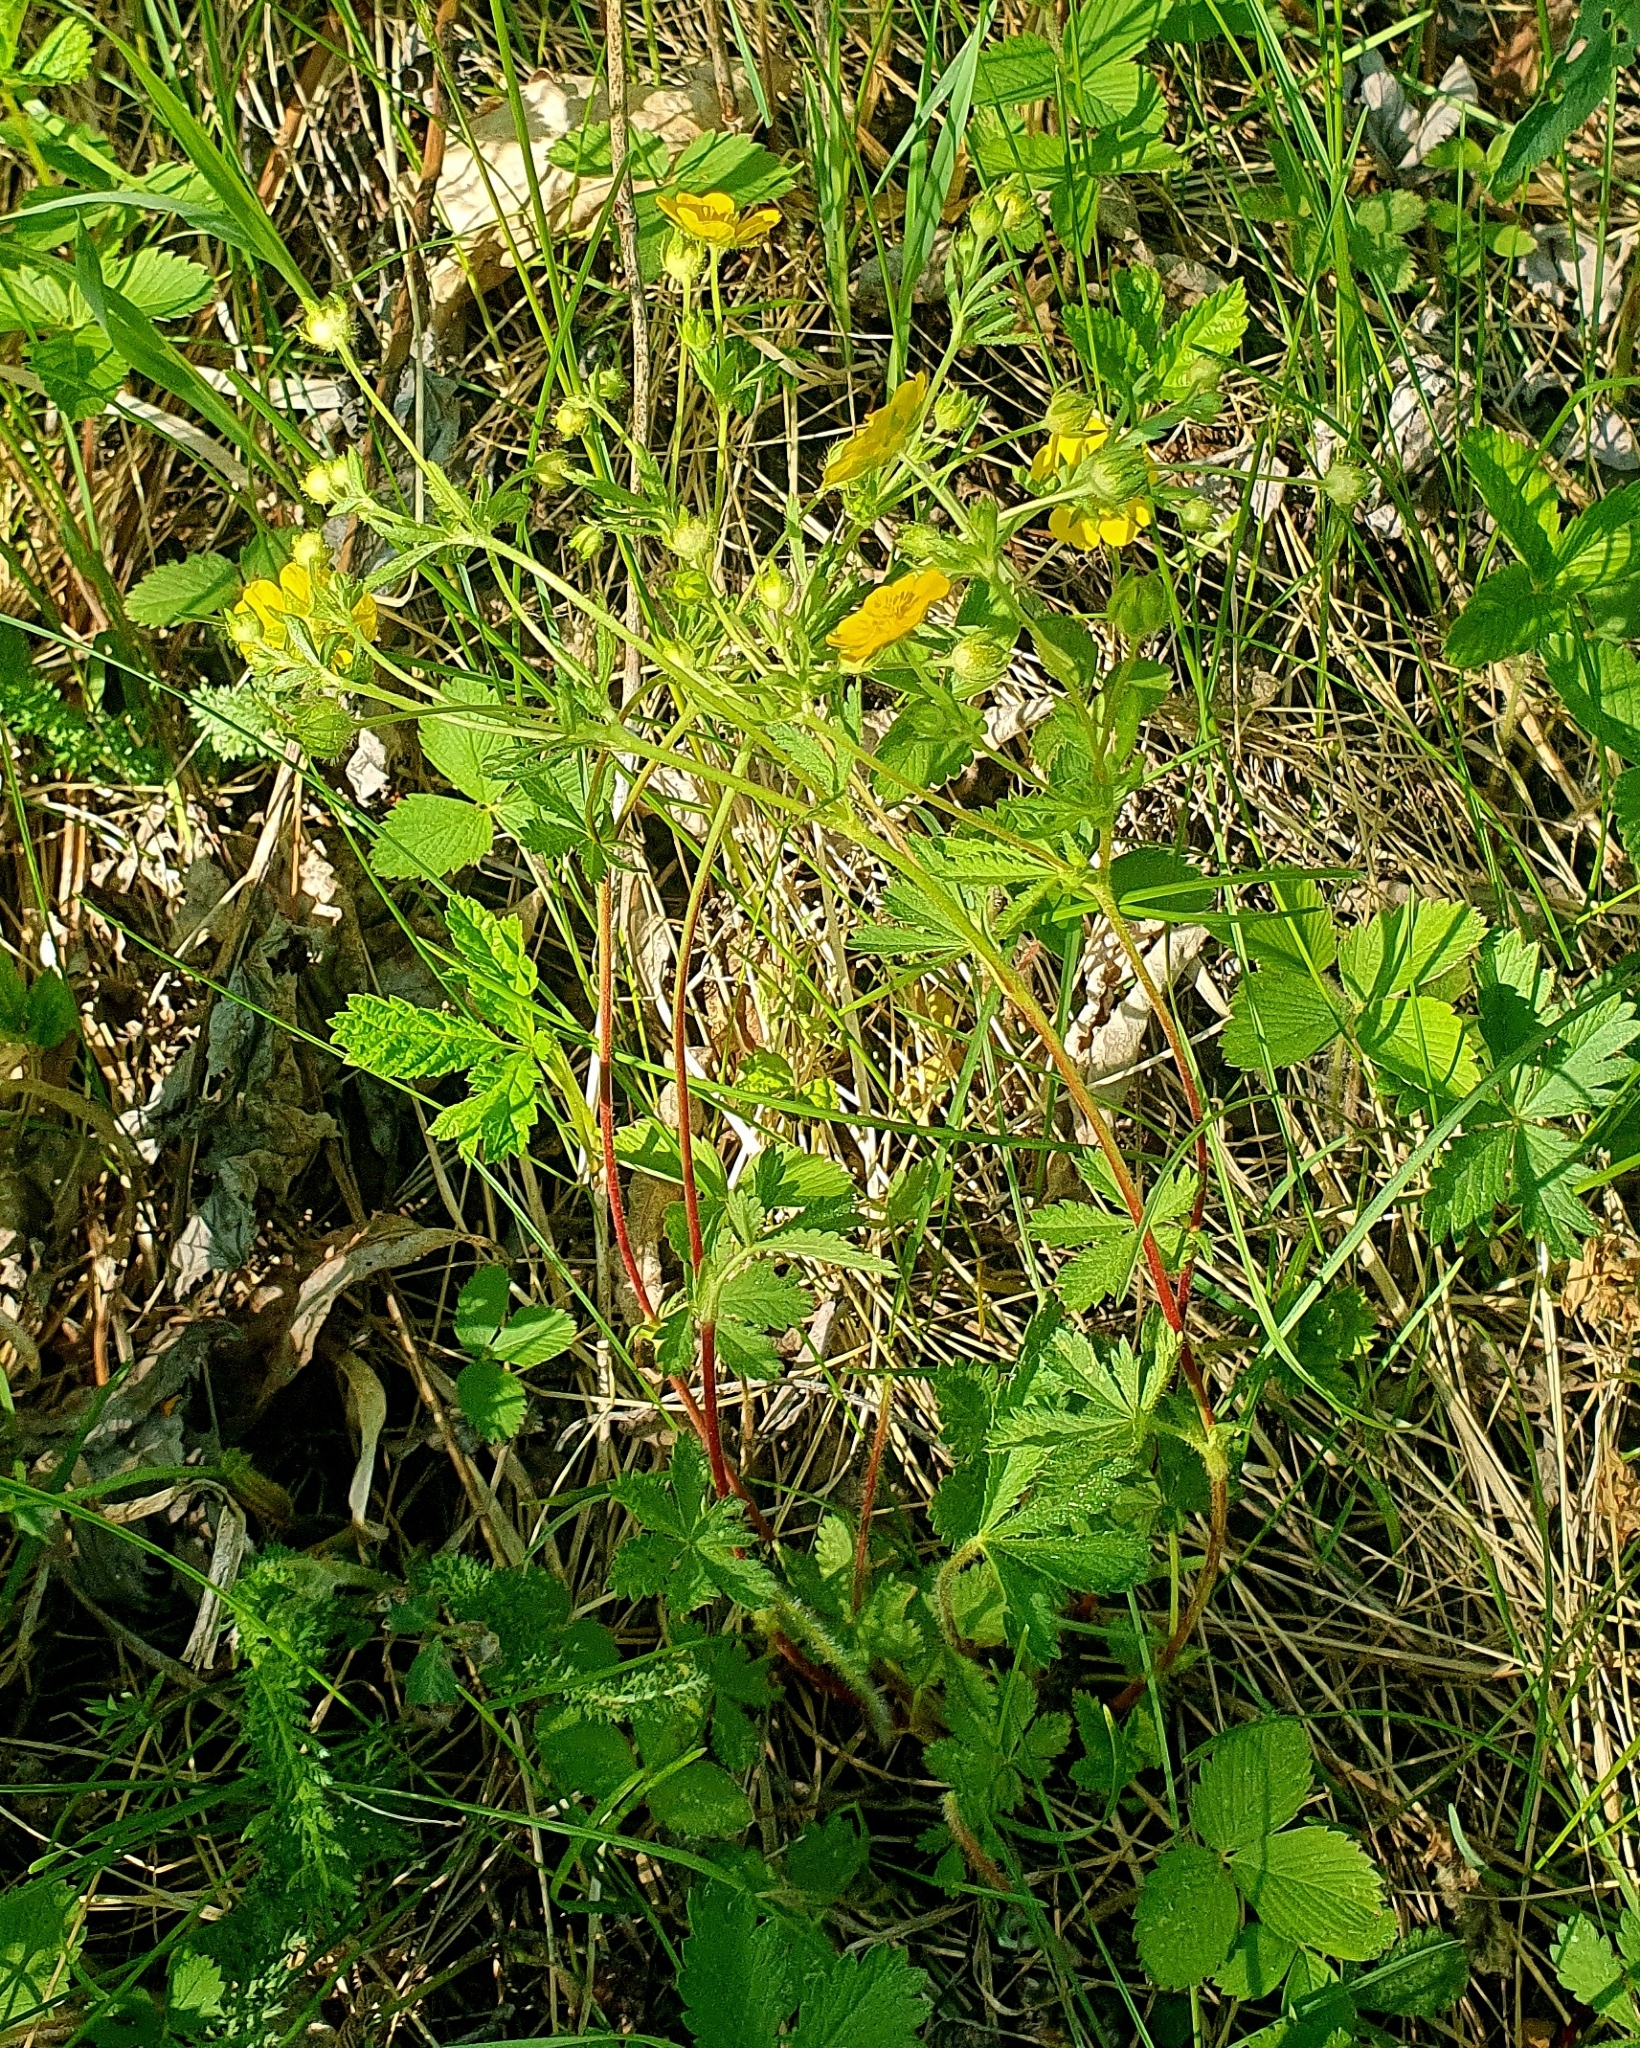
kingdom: Plantae
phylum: Tracheophyta
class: Magnoliopsida
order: Rosales
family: Rosaceae
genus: Potentilla
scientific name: Potentilla thuringiaca
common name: European cinquefoil
